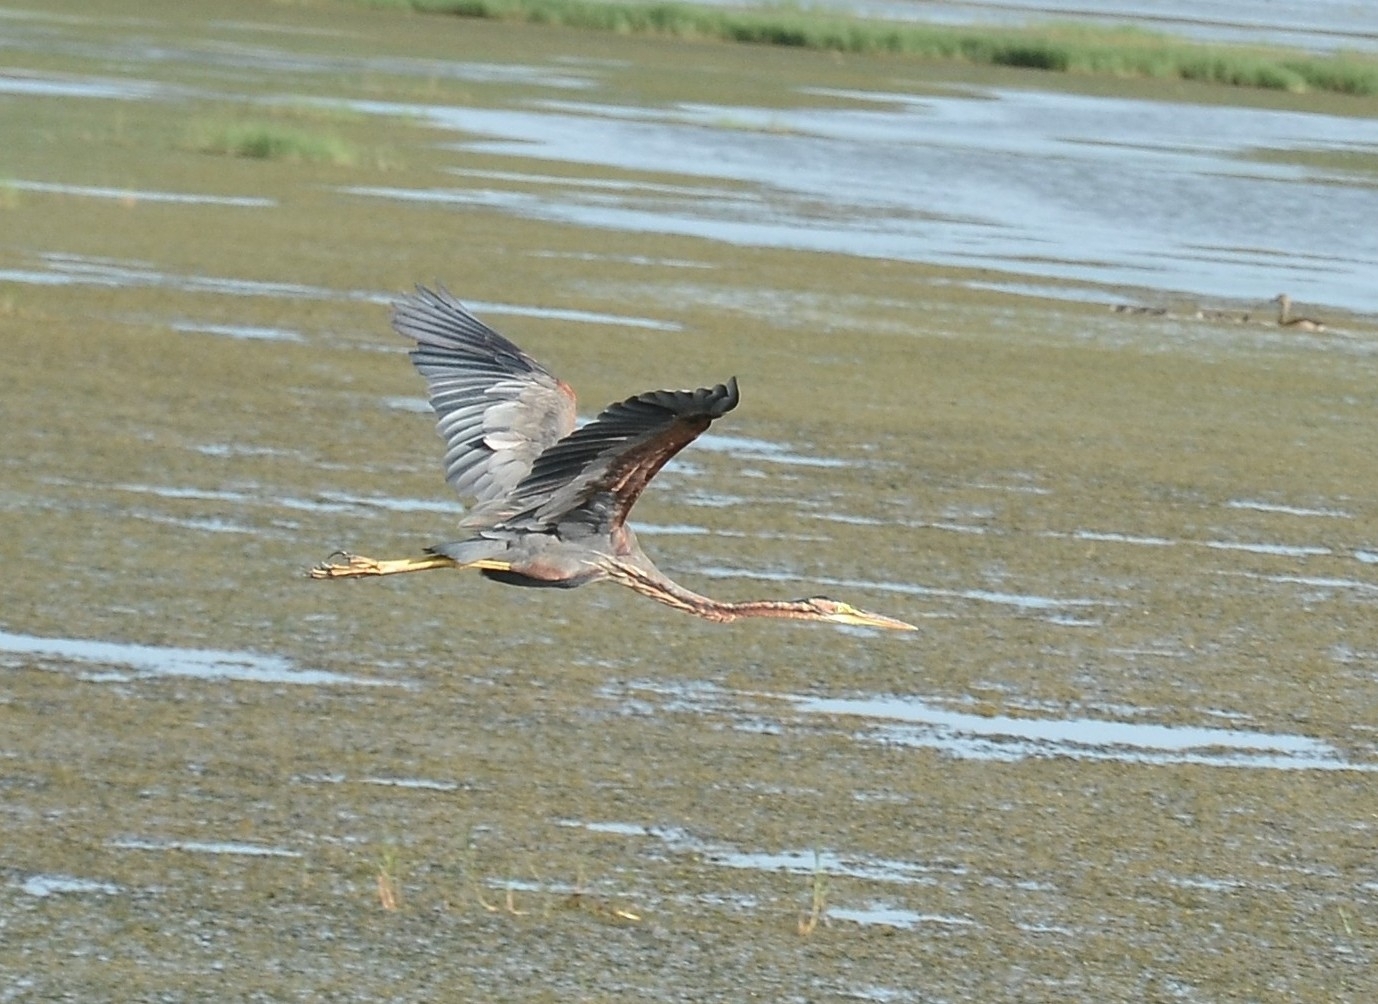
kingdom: Animalia
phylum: Chordata
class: Aves
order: Pelecaniformes
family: Ardeidae
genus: Ardea
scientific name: Ardea purpurea
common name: Purple heron
